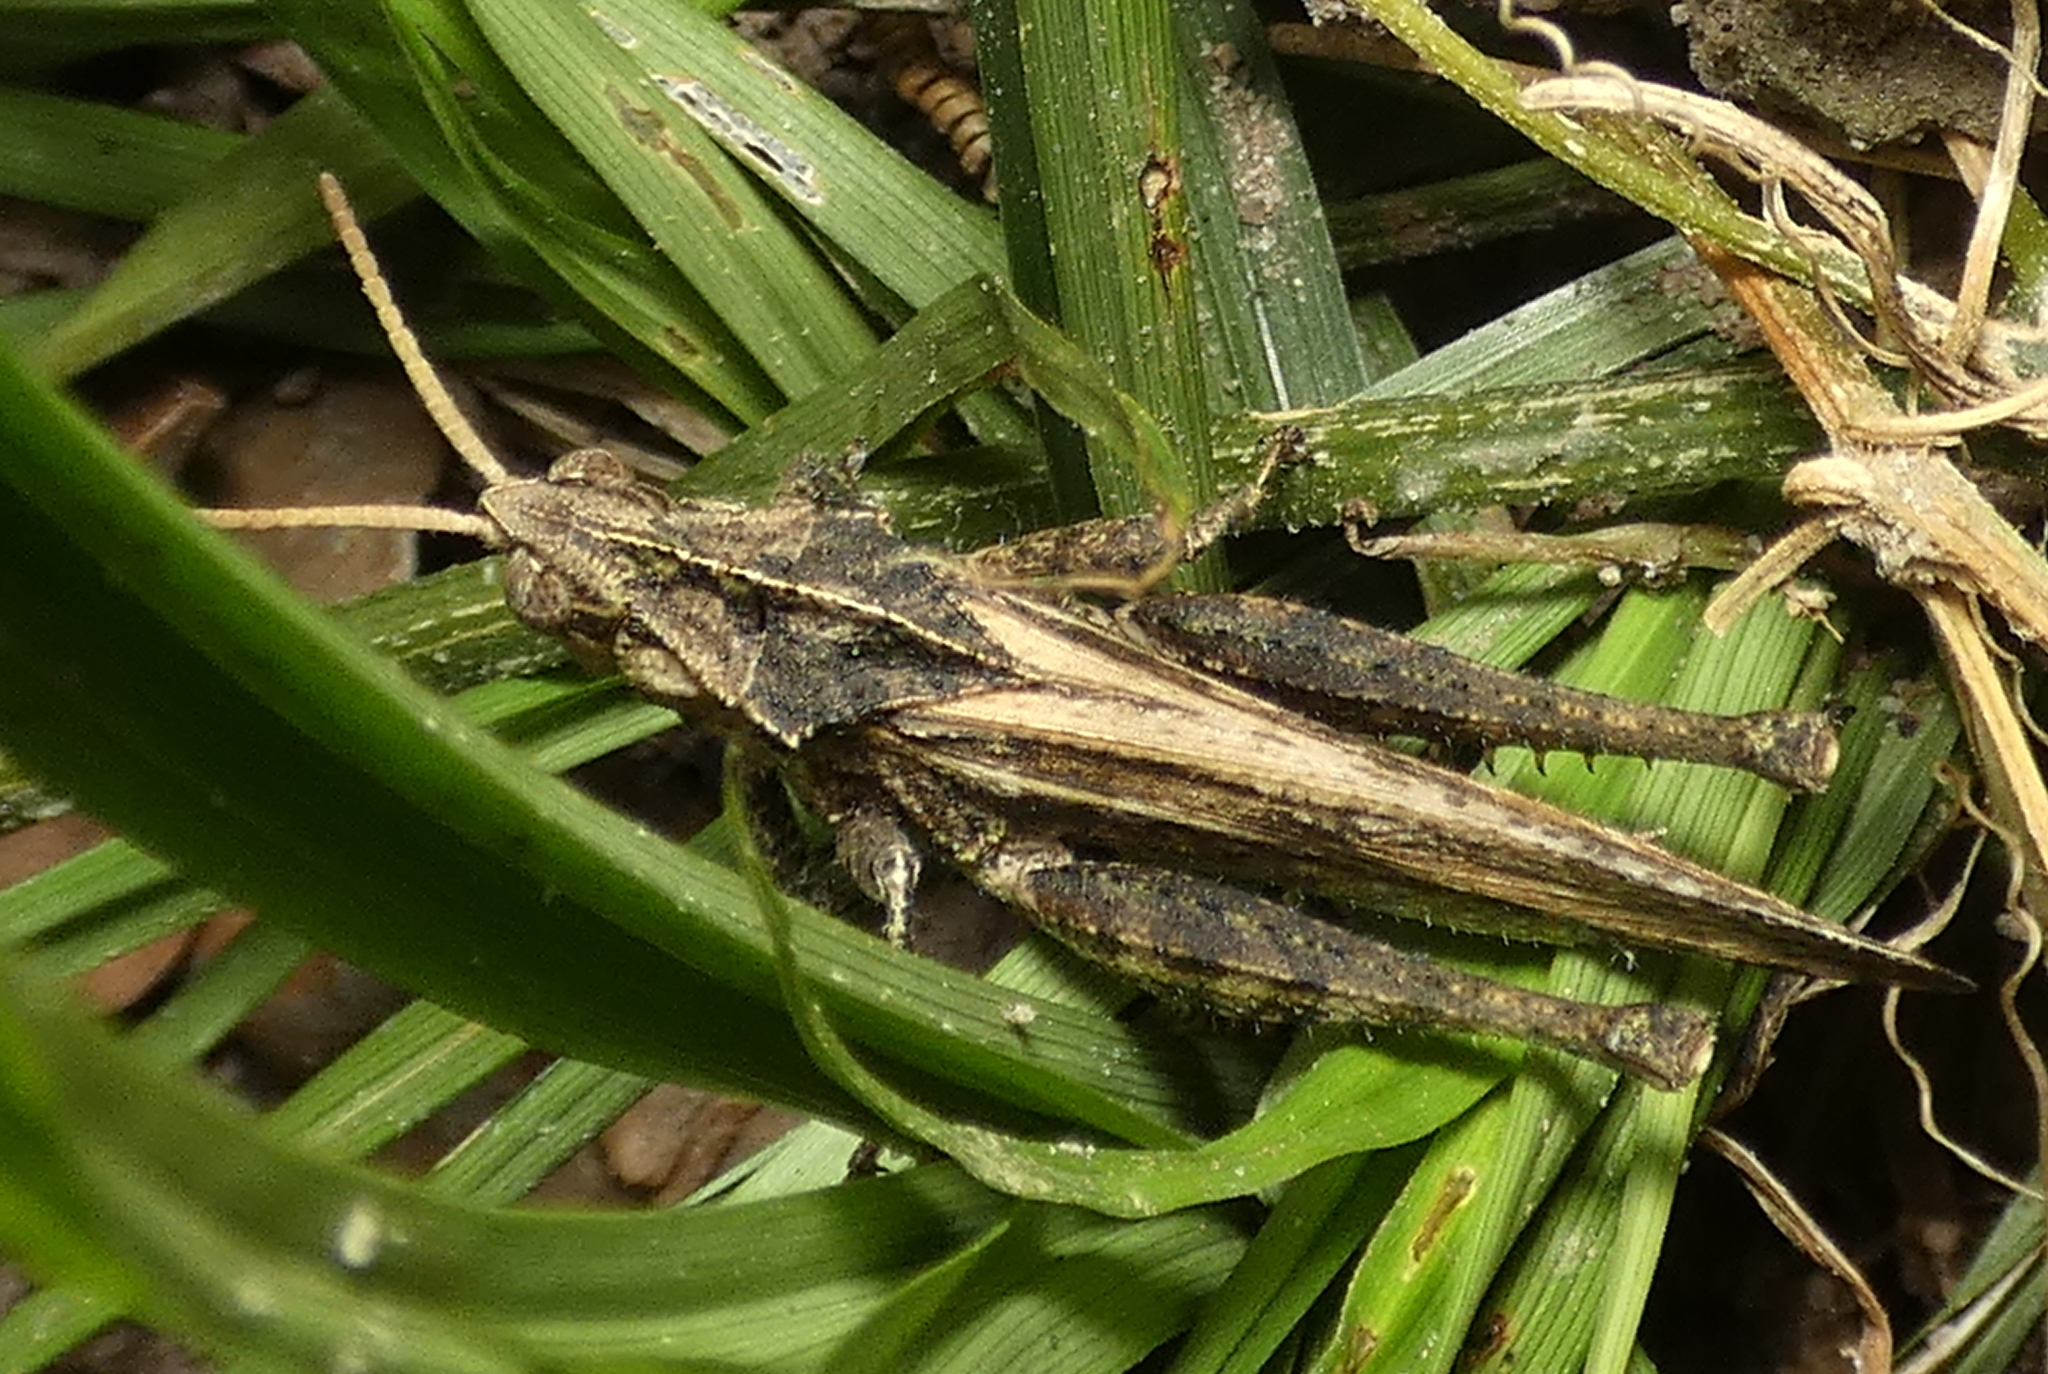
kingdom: Animalia
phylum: Arthropoda
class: Insecta
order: Orthoptera
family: Romaleidae
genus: Xyleus
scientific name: Xyleus discoideus
